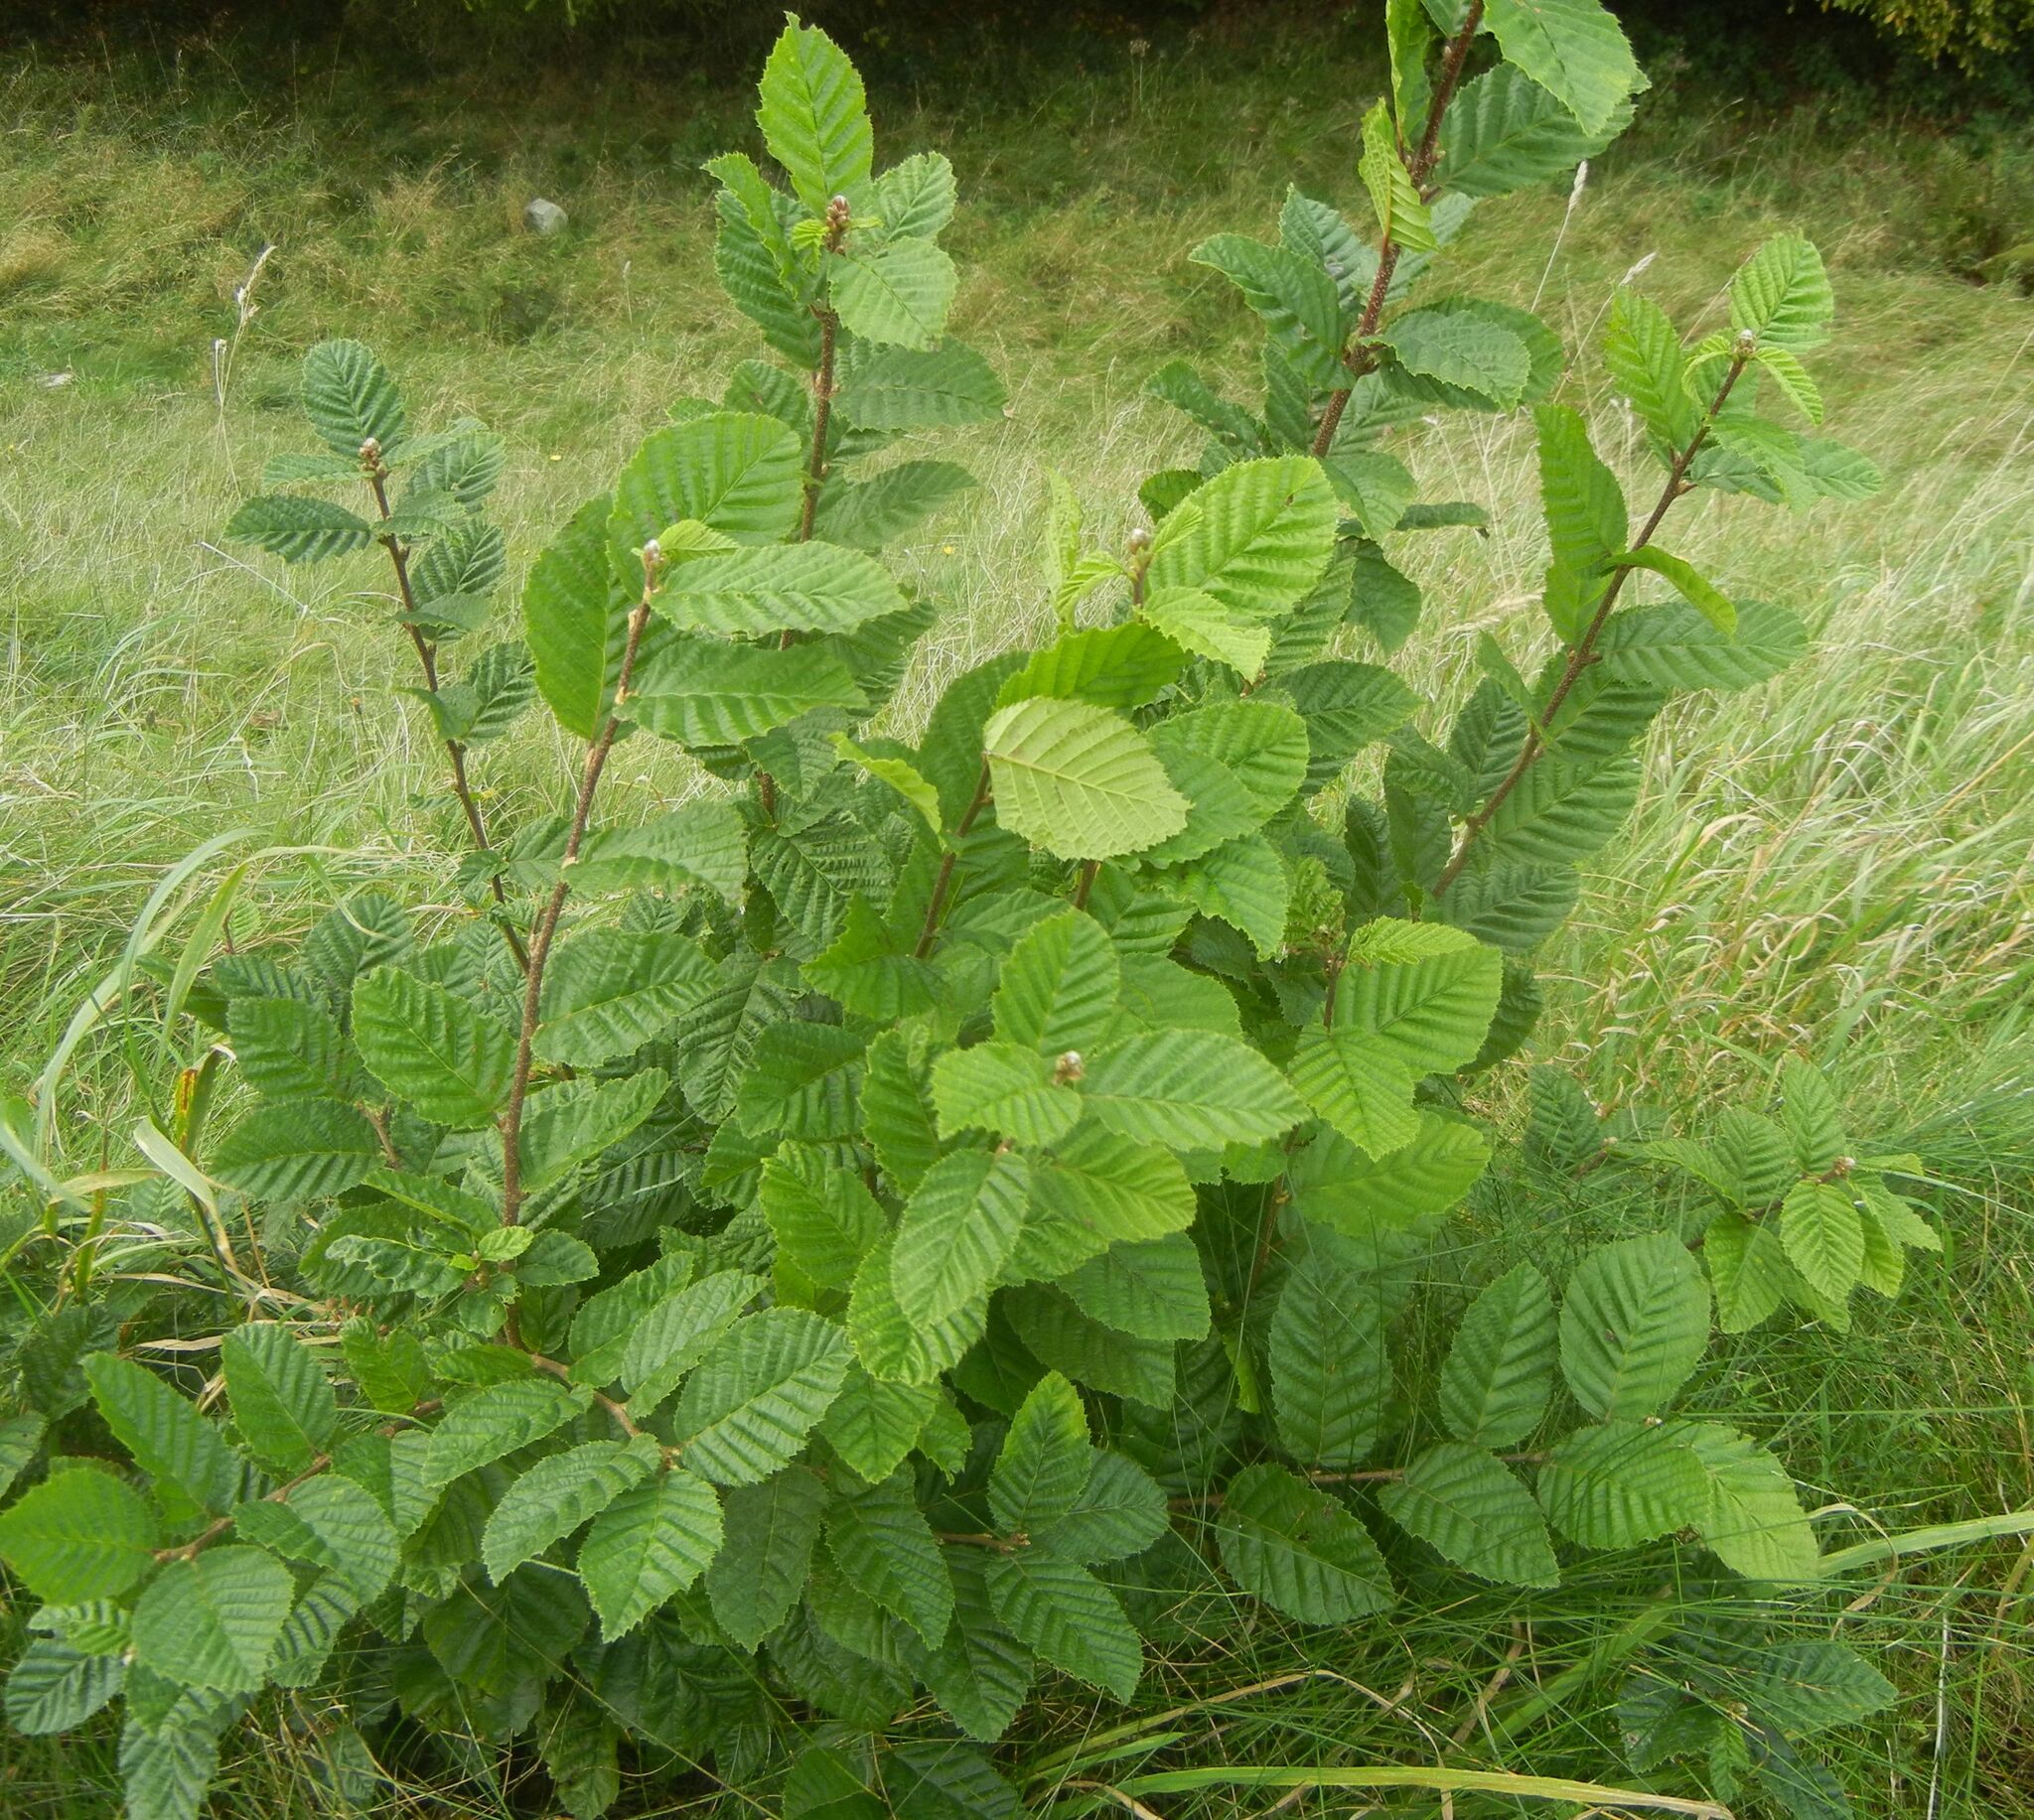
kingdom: Plantae
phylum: Tracheophyta
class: Magnoliopsida
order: Fagales
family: Betulaceae
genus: Carpinus
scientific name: Carpinus betulus
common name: Hornbeam
